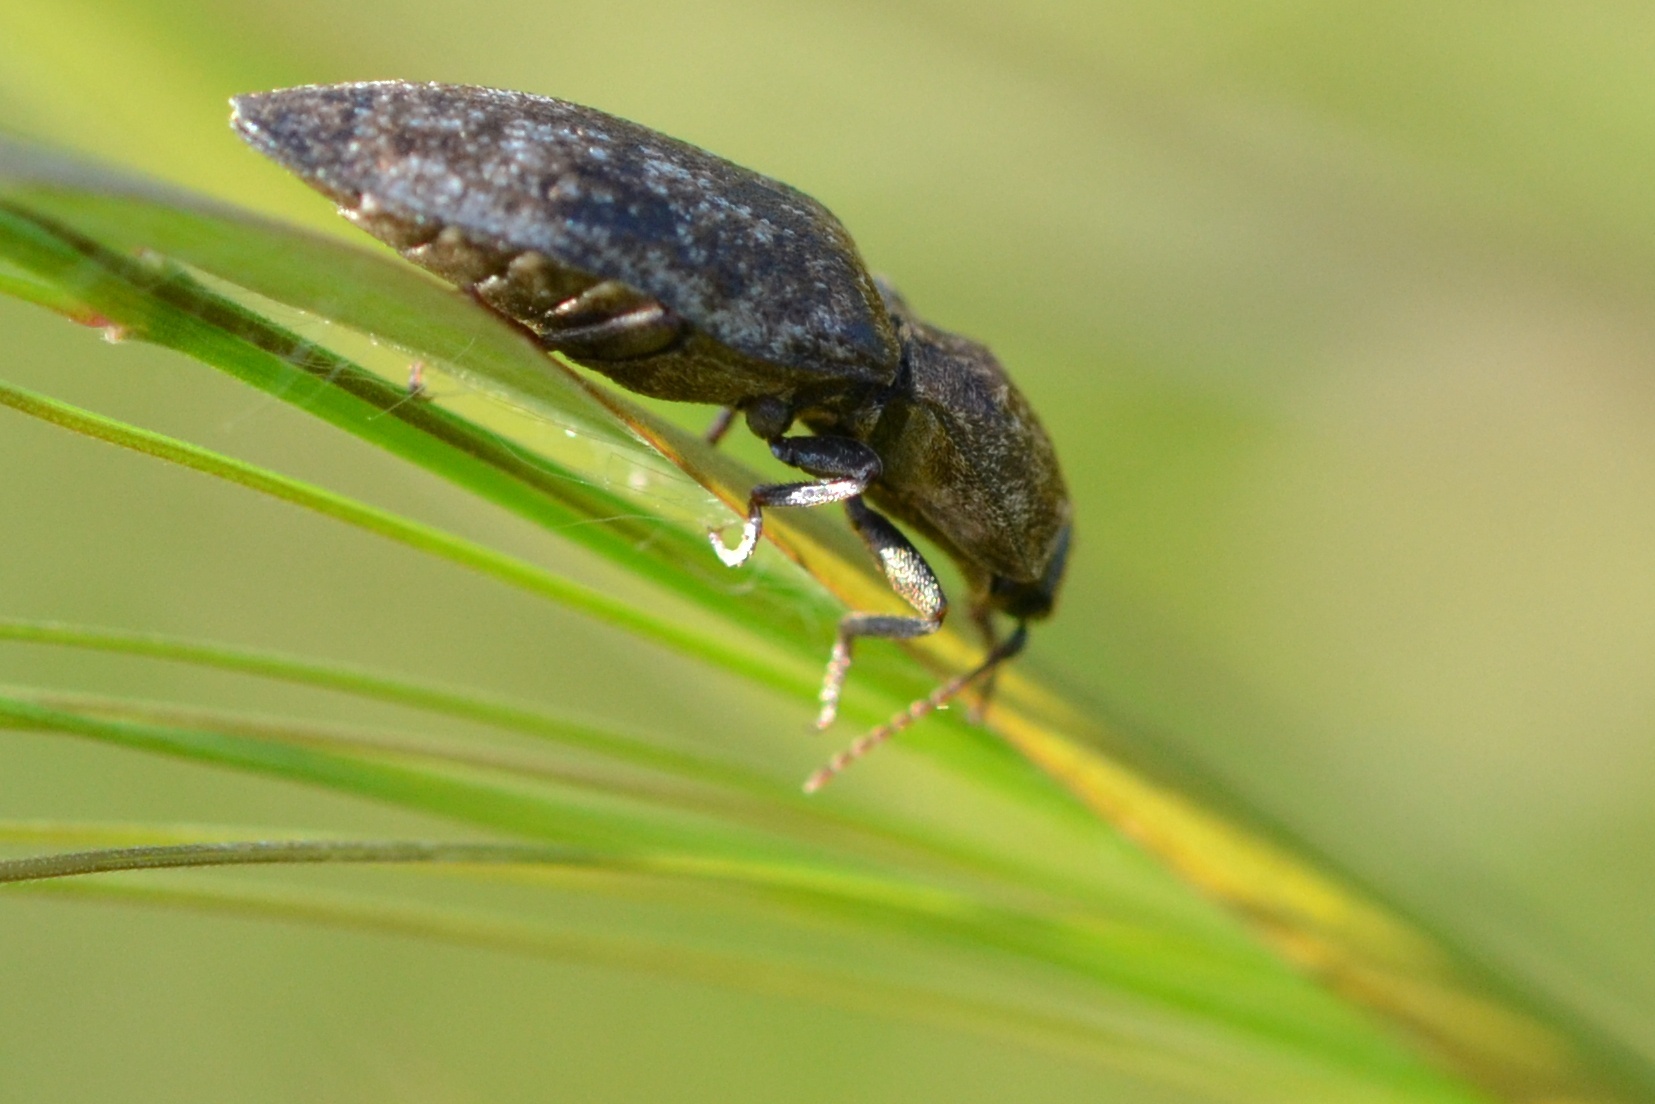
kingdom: Animalia
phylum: Arthropoda
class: Insecta
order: Coleoptera
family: Elateridae
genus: Agrypnus
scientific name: Agrypnus murinus
